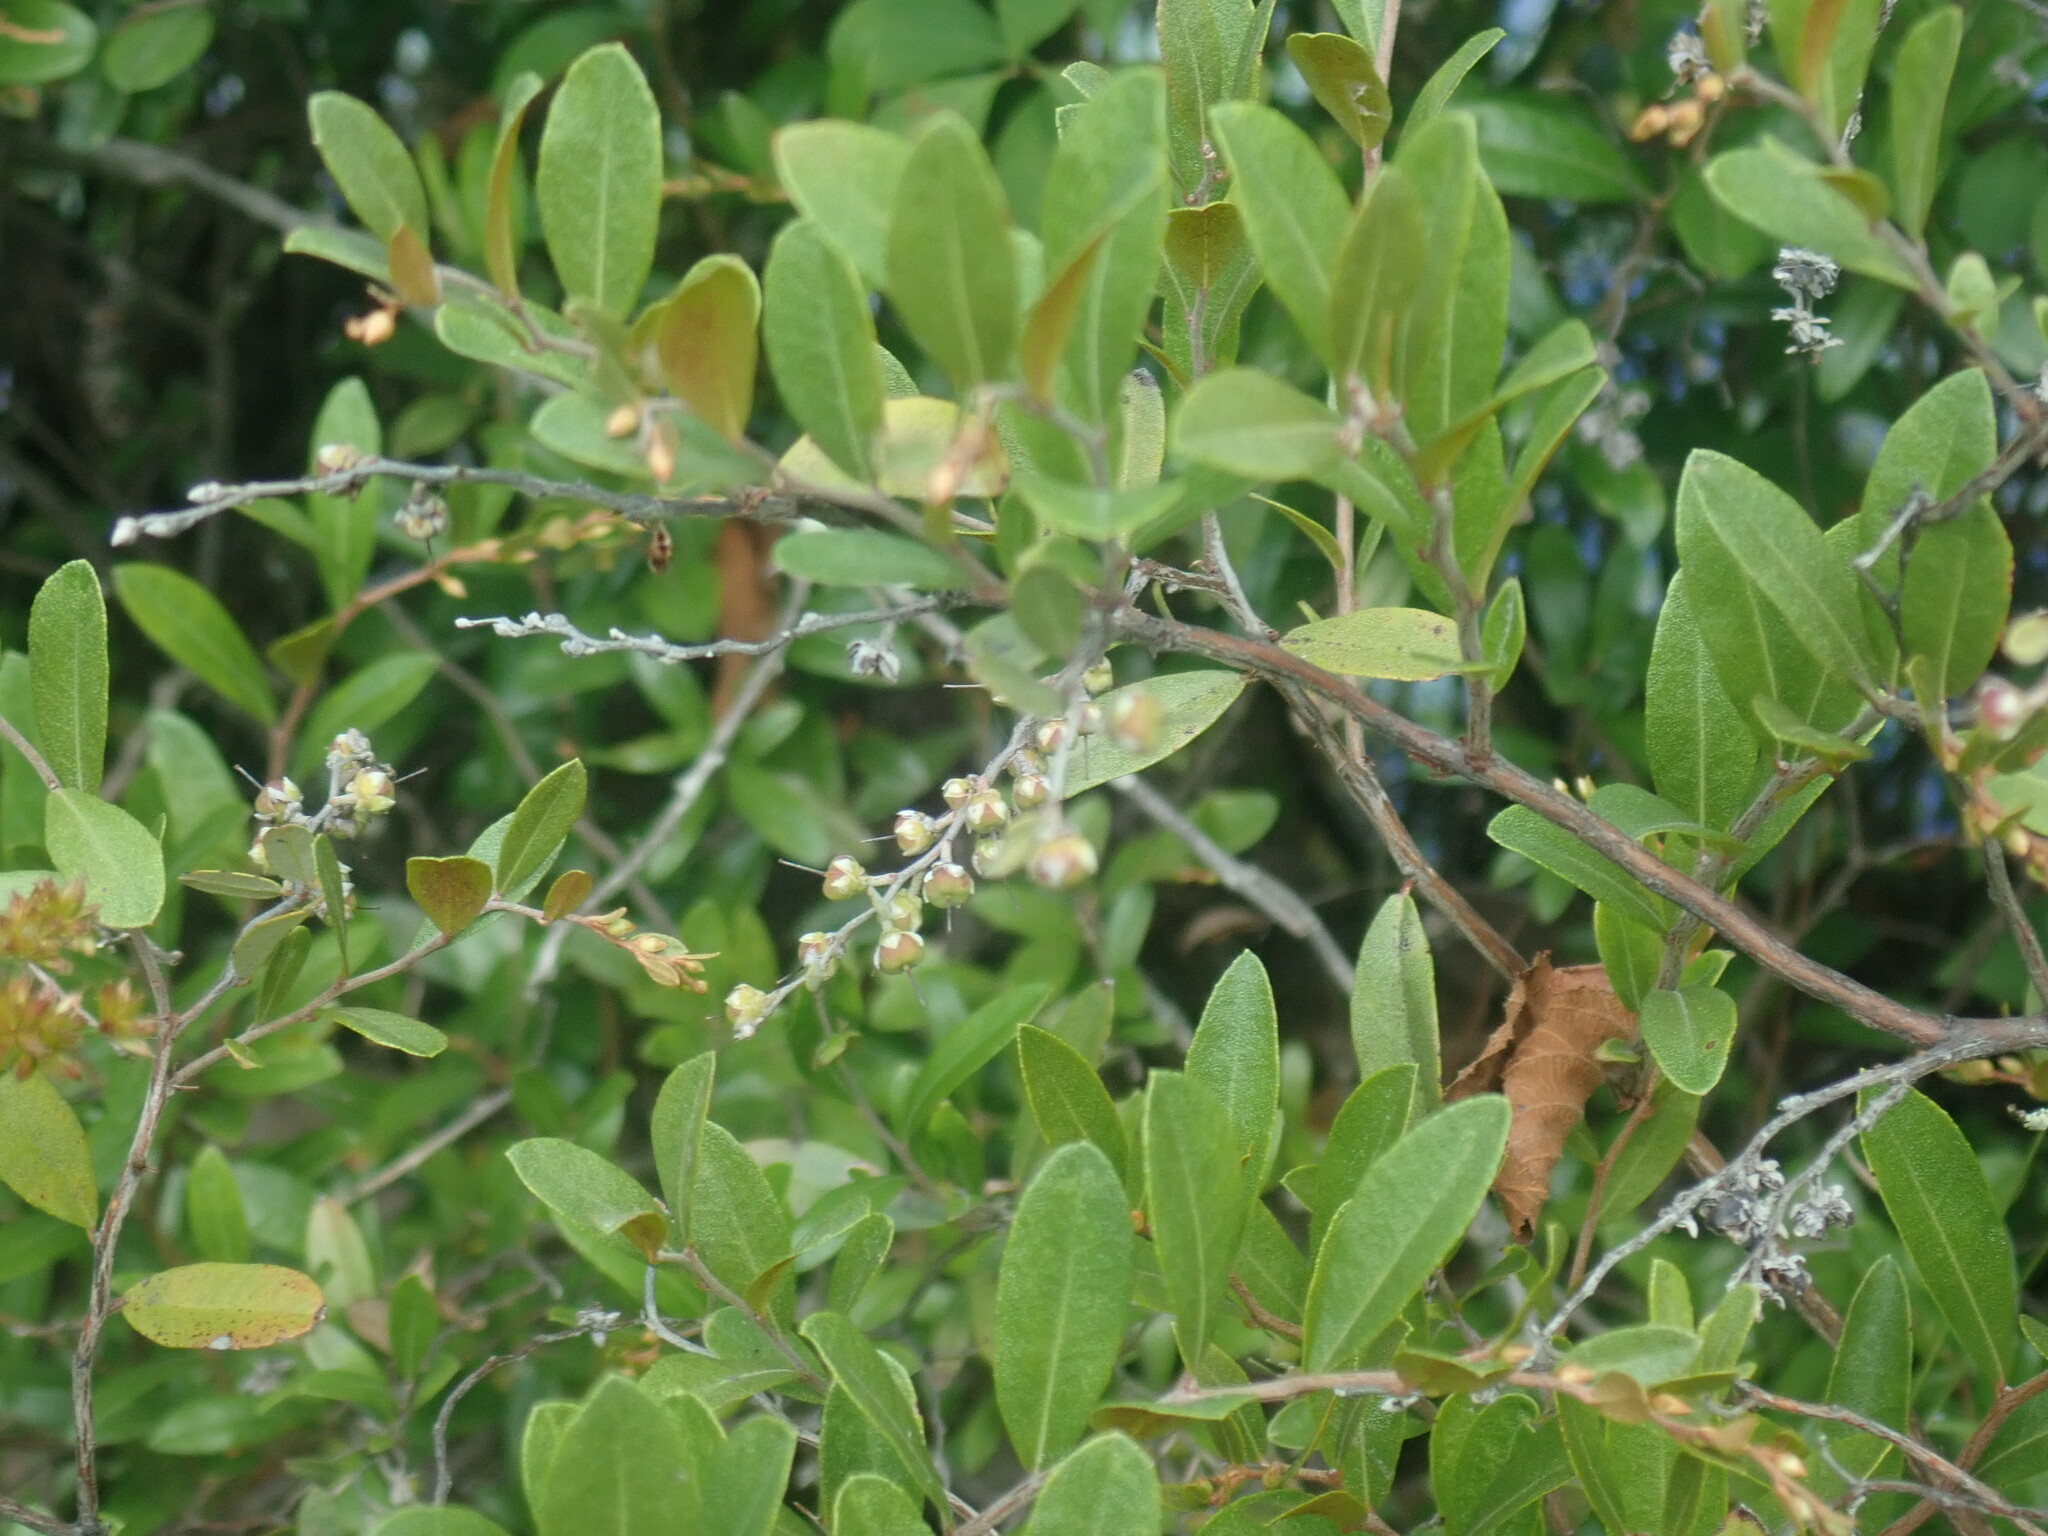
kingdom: Plantae
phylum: Tracheophyta
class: Magnoliopsida
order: Ericales
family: Ericaceae
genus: Chamaedaphne
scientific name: Chamaedaphne calyculata
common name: Leatherleaf
